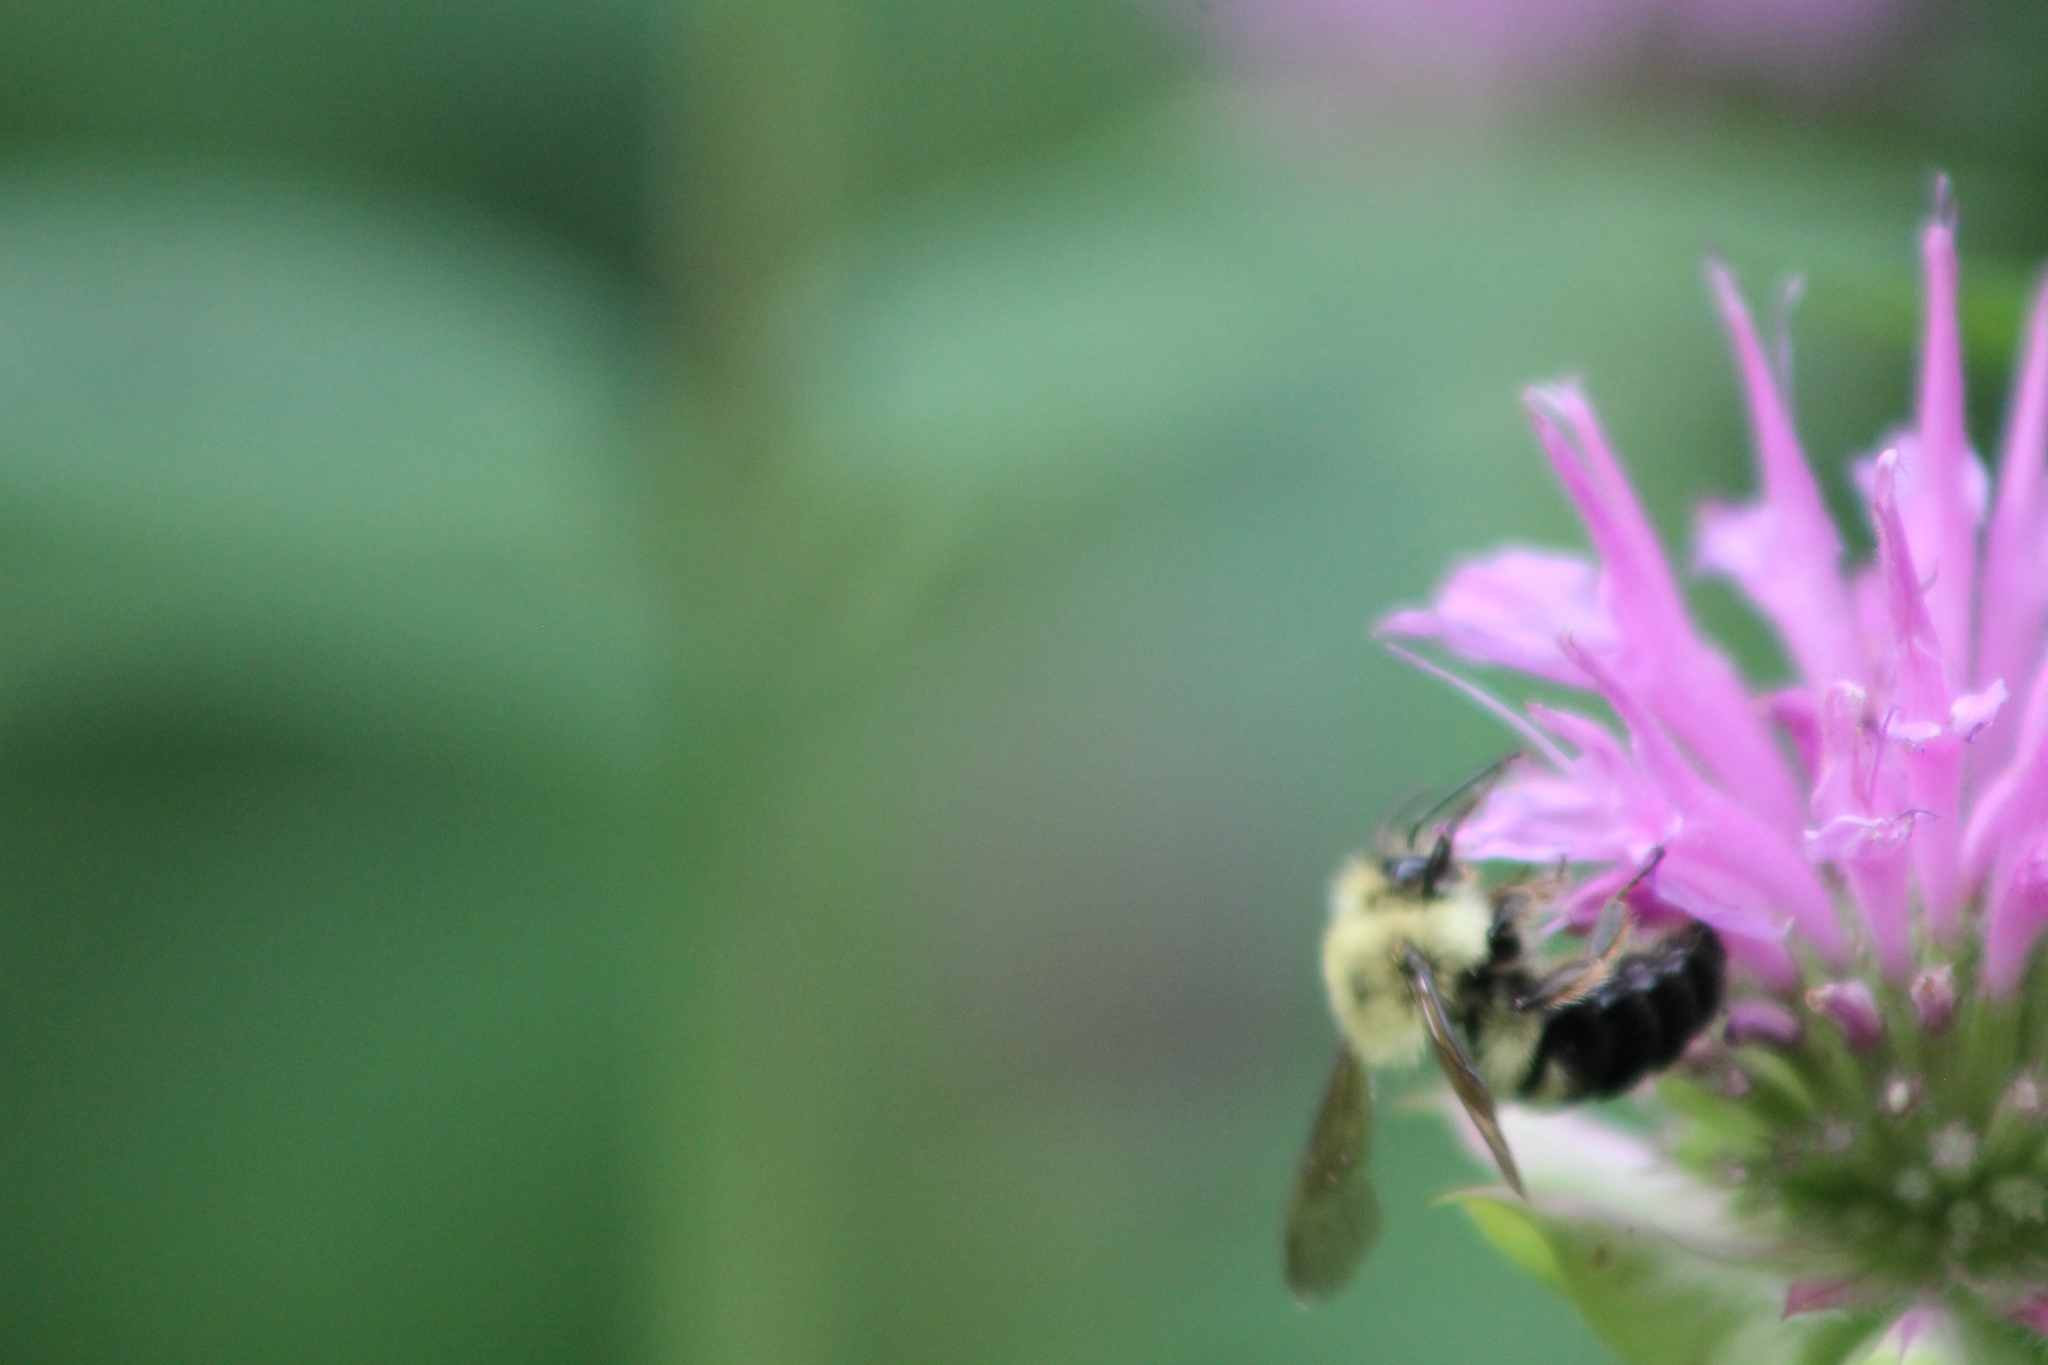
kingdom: Animalia
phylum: Arthropoda
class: Insecta
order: Hymenoptera
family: Apidae
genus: Bombus
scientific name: Bombus bimaculatus
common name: Two-spotted bumble bee
